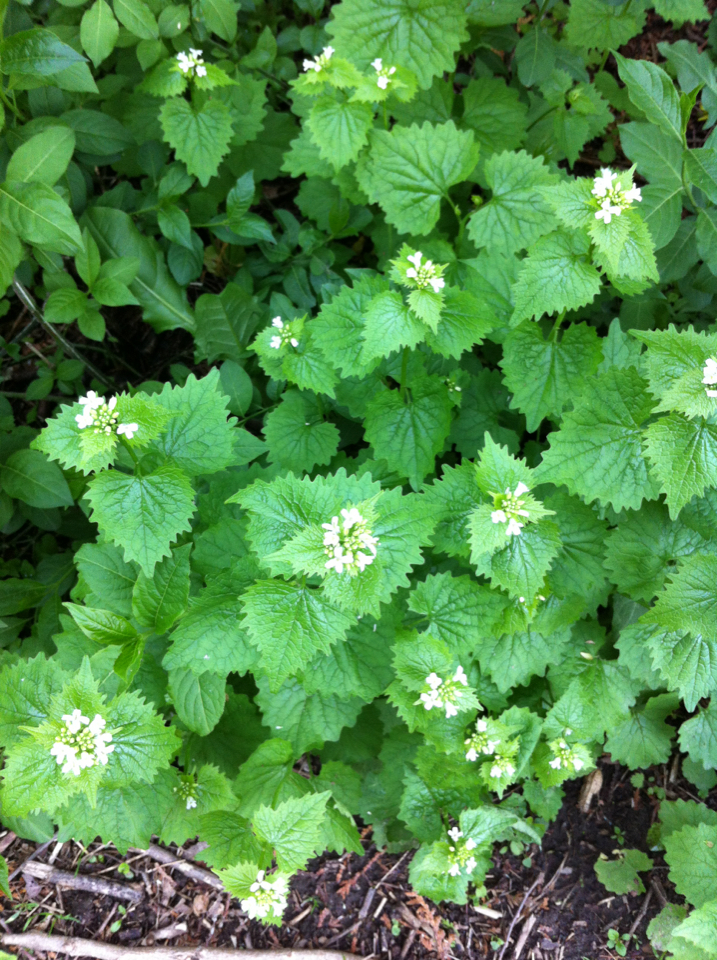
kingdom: Plantae
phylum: Tracheophyta
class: Magnoliopsida
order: Brassicales
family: Brassicaceae
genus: Alliaria
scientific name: Alliaria petiolata
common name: Garlic mustard
